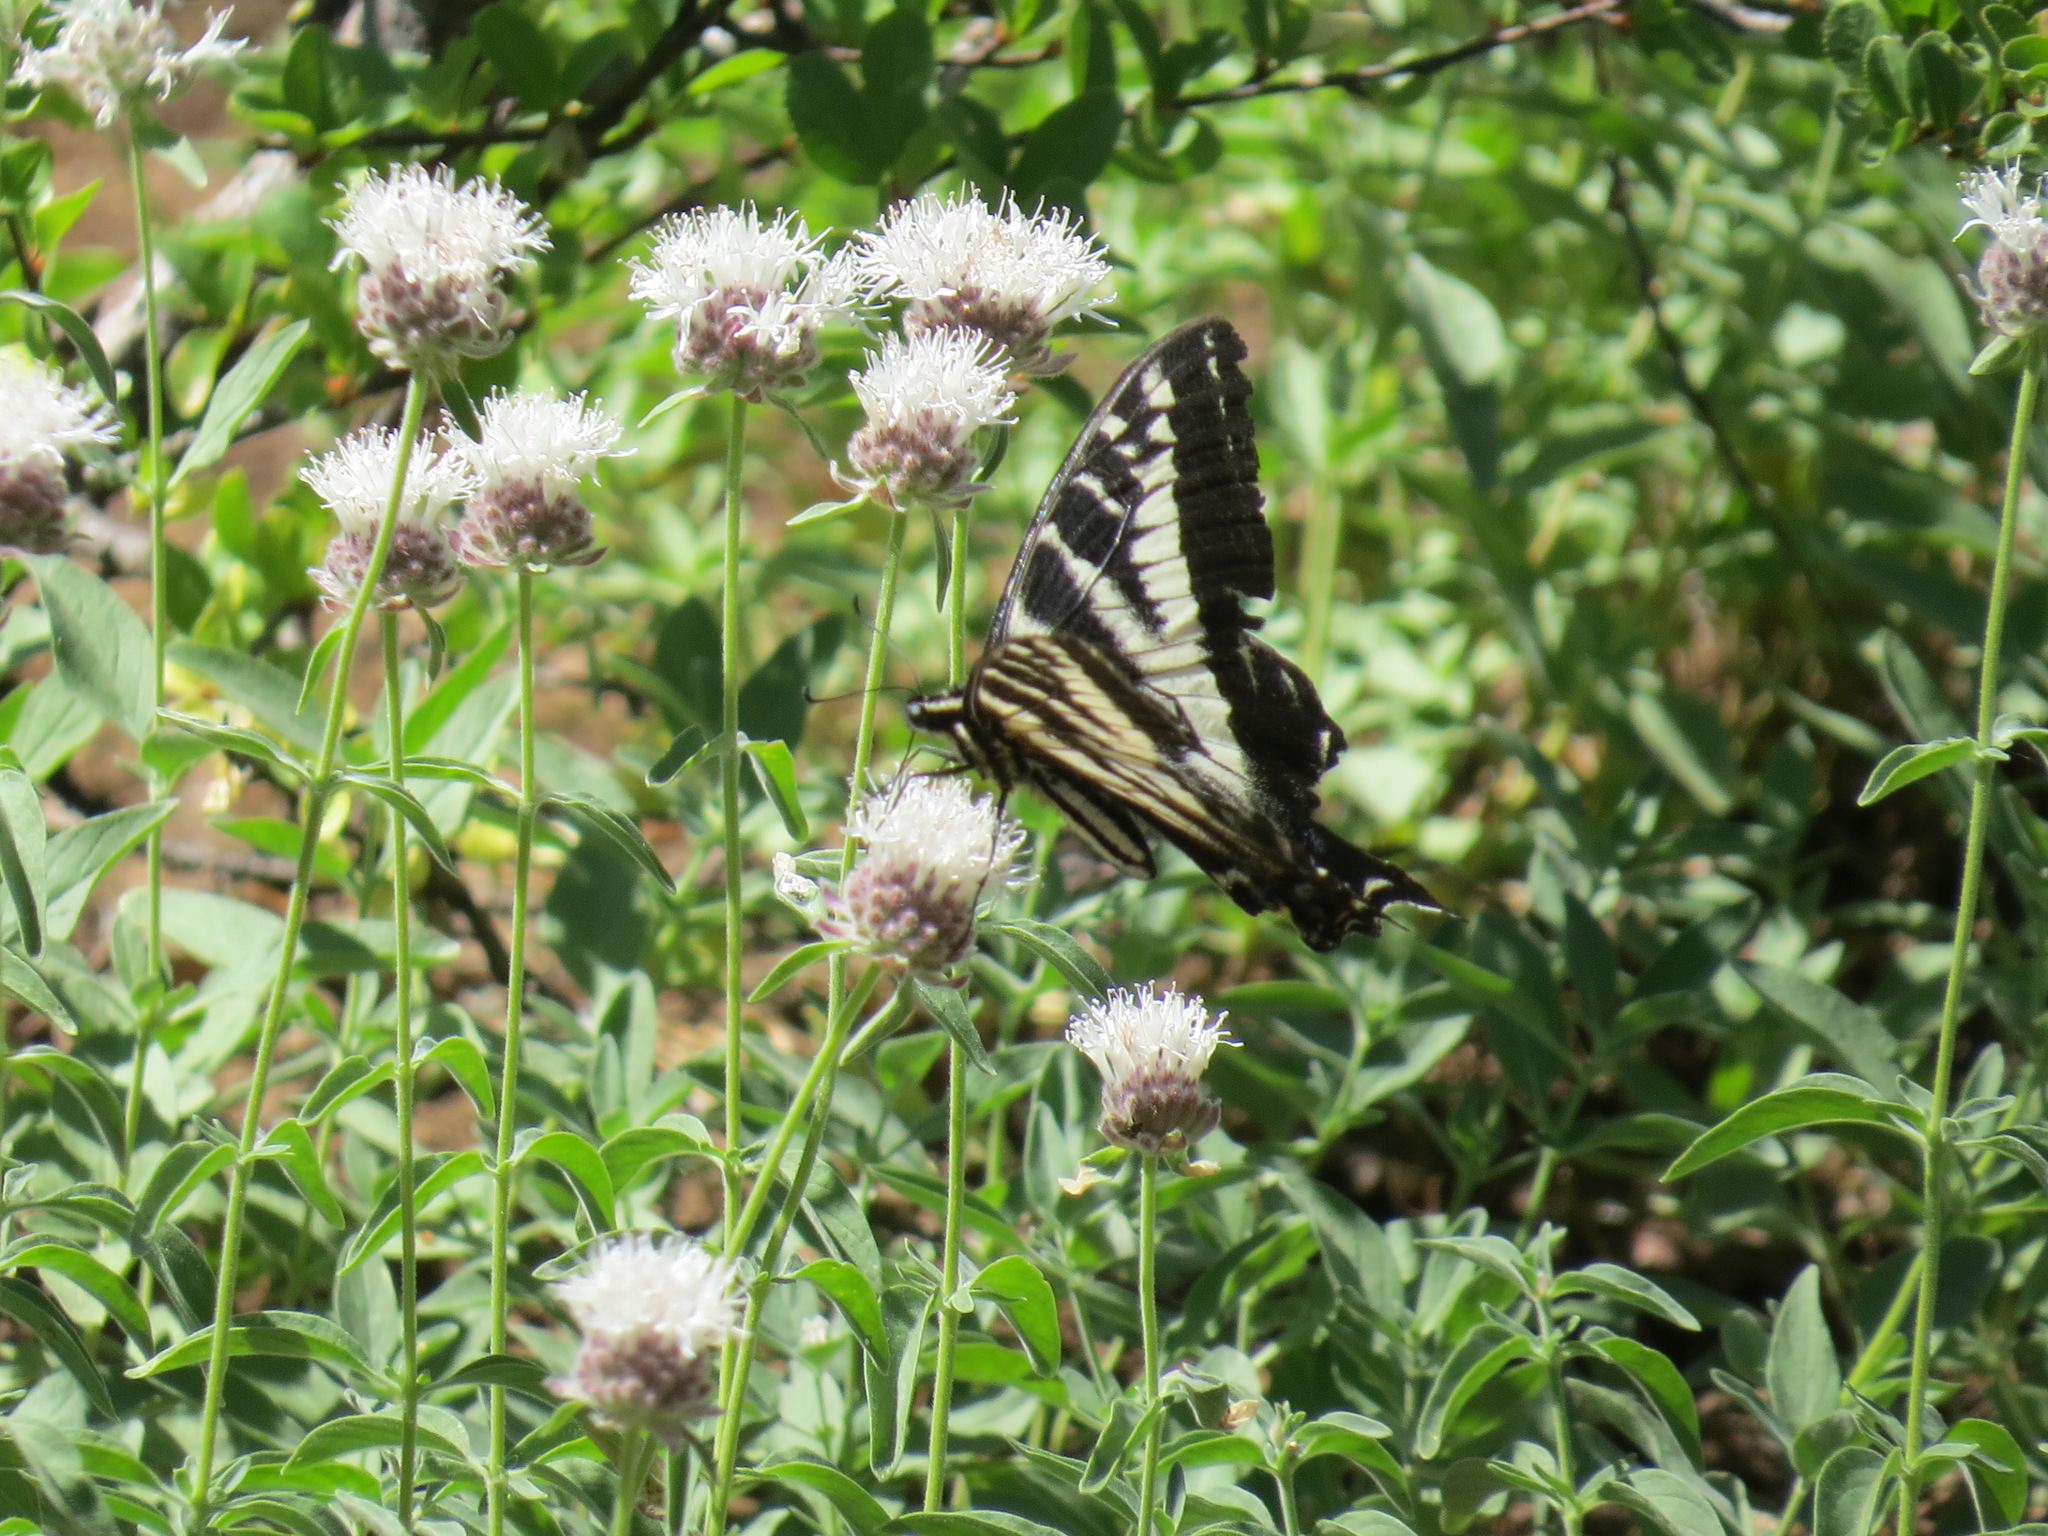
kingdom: Animalia
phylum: Arthropoda
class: Insecta
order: Lepidoptera
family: Papilionidae
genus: Papilio
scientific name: Papilio eurymedon
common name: Pale tiger swallowtail
